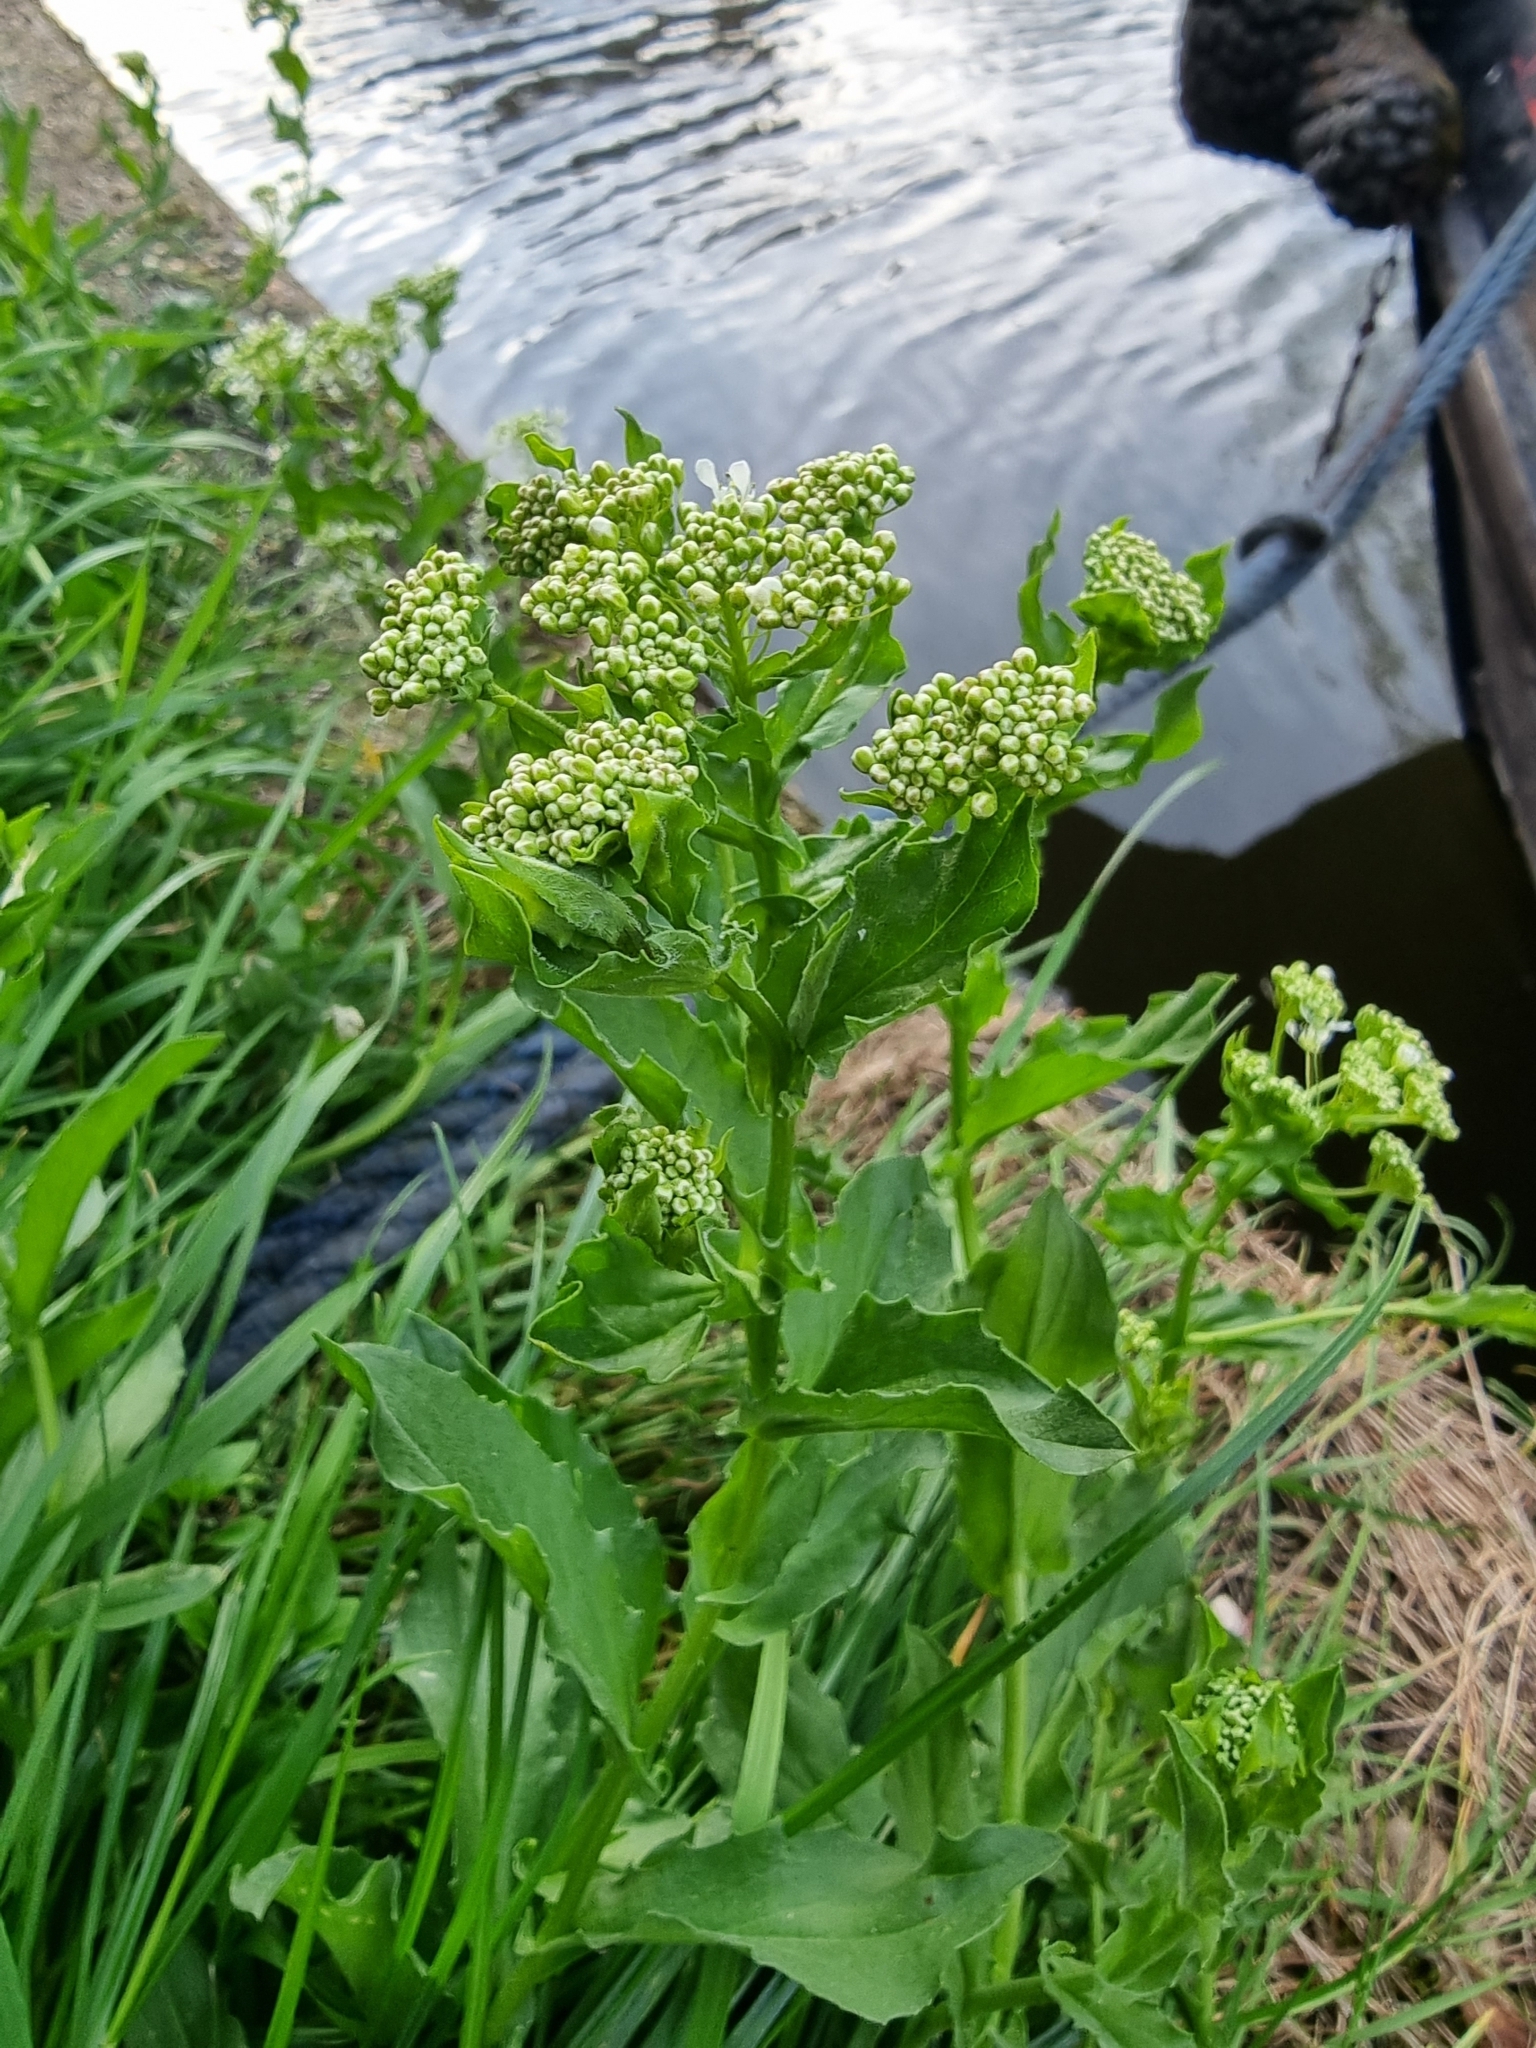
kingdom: Plantae
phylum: Tracheophyta
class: Magnoliopsida
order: Brassicales
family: Brassicaceae
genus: Lepidium
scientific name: Lepidium draba
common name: Hoary cress
